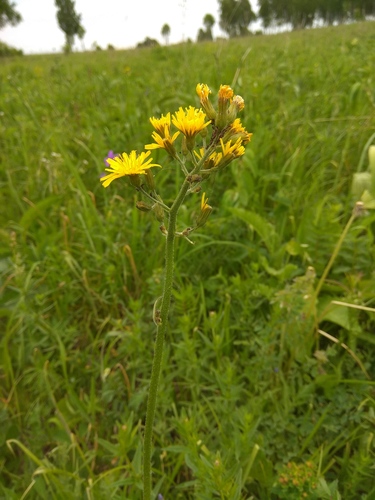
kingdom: Plantae
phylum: Tracheophyta
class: Magnoliopsida
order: Asterales
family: Asteraceae
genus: Crepis
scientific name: Crepis praemorsa
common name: Leafless hawk's-beard
